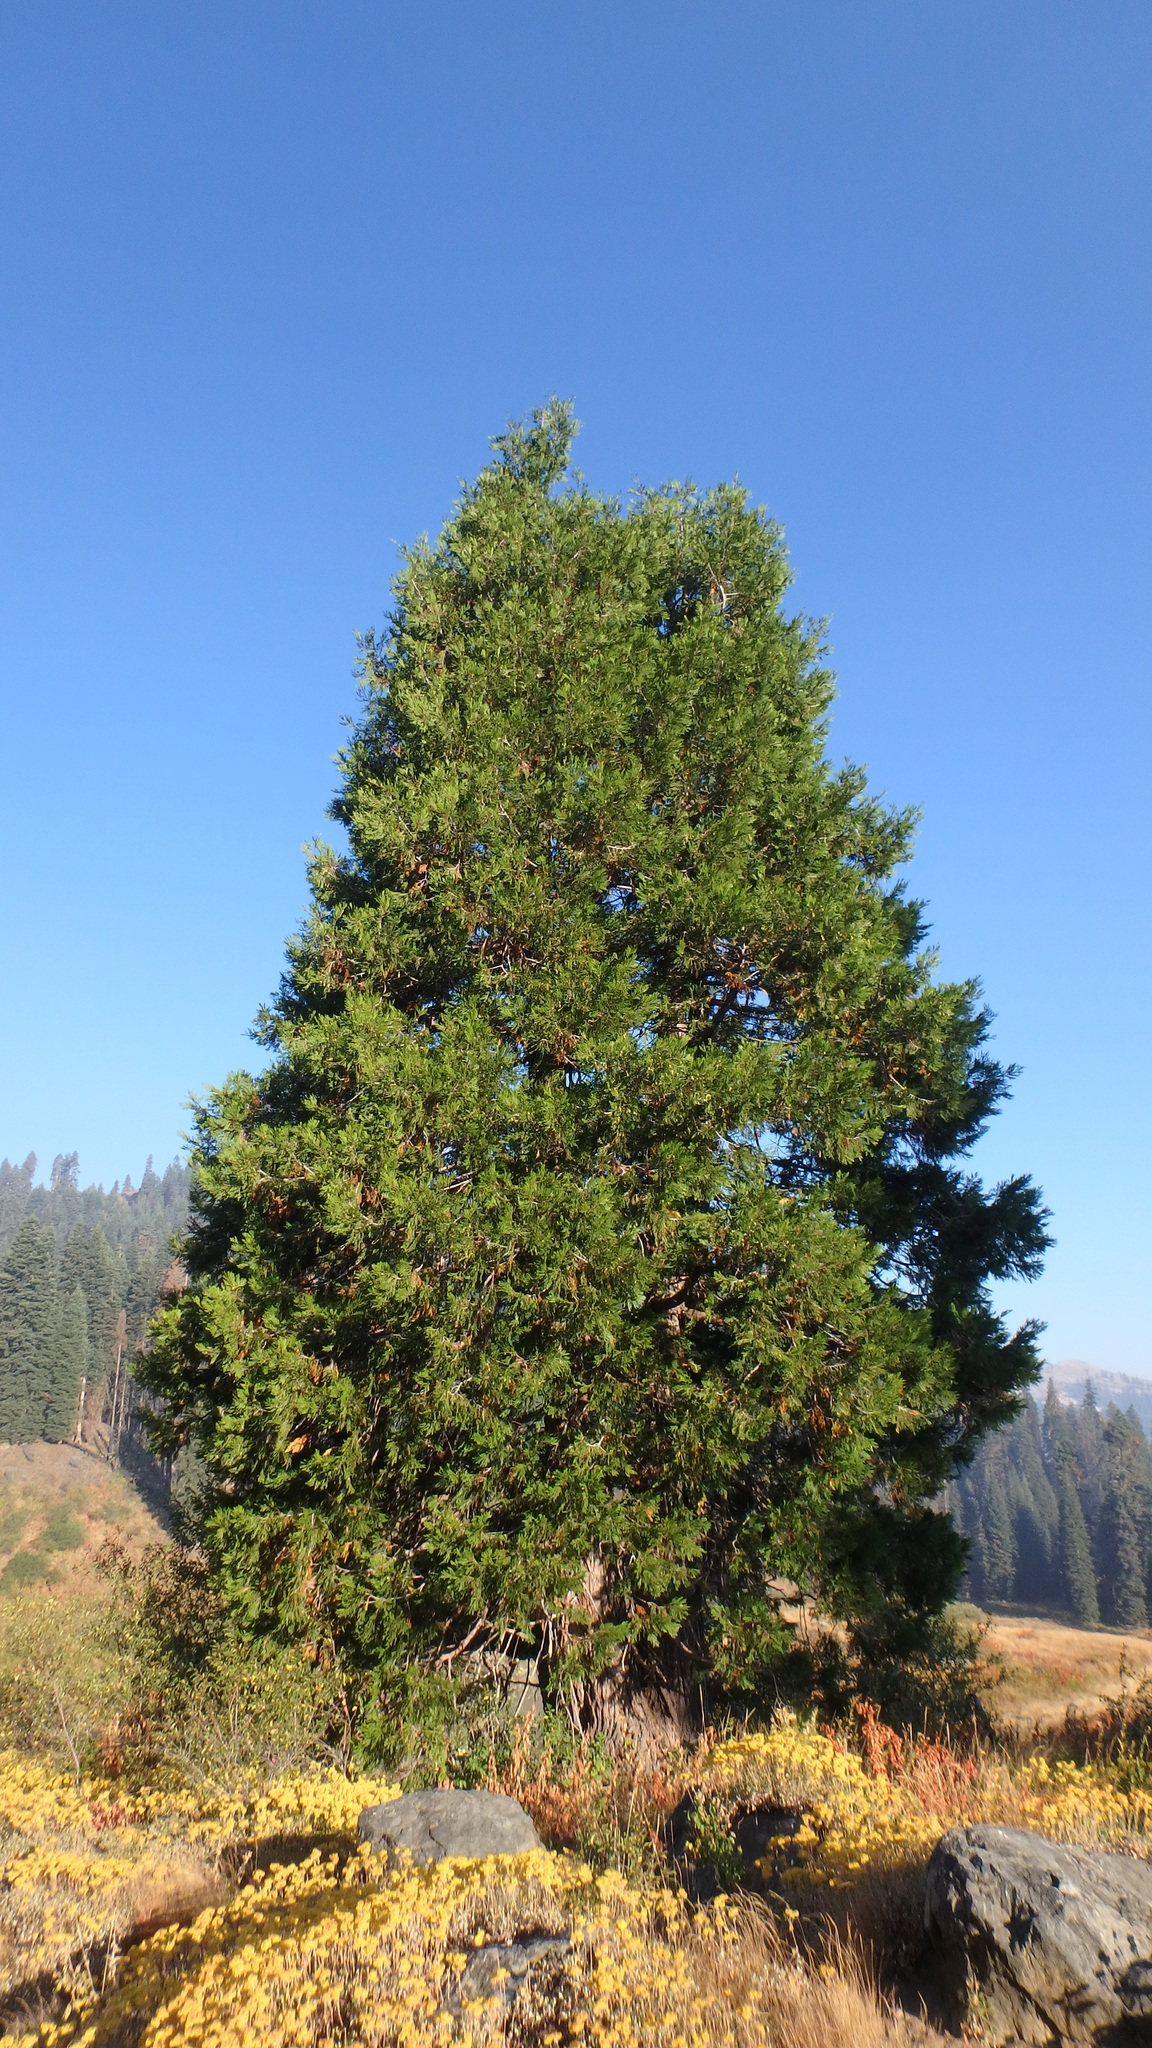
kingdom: Plantae
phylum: Tracheophyta
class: Pinopsida
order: Pinales
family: Cupressaceae
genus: Calocedrus
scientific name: Calocedrus decurrens
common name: Californian incense-cedar
